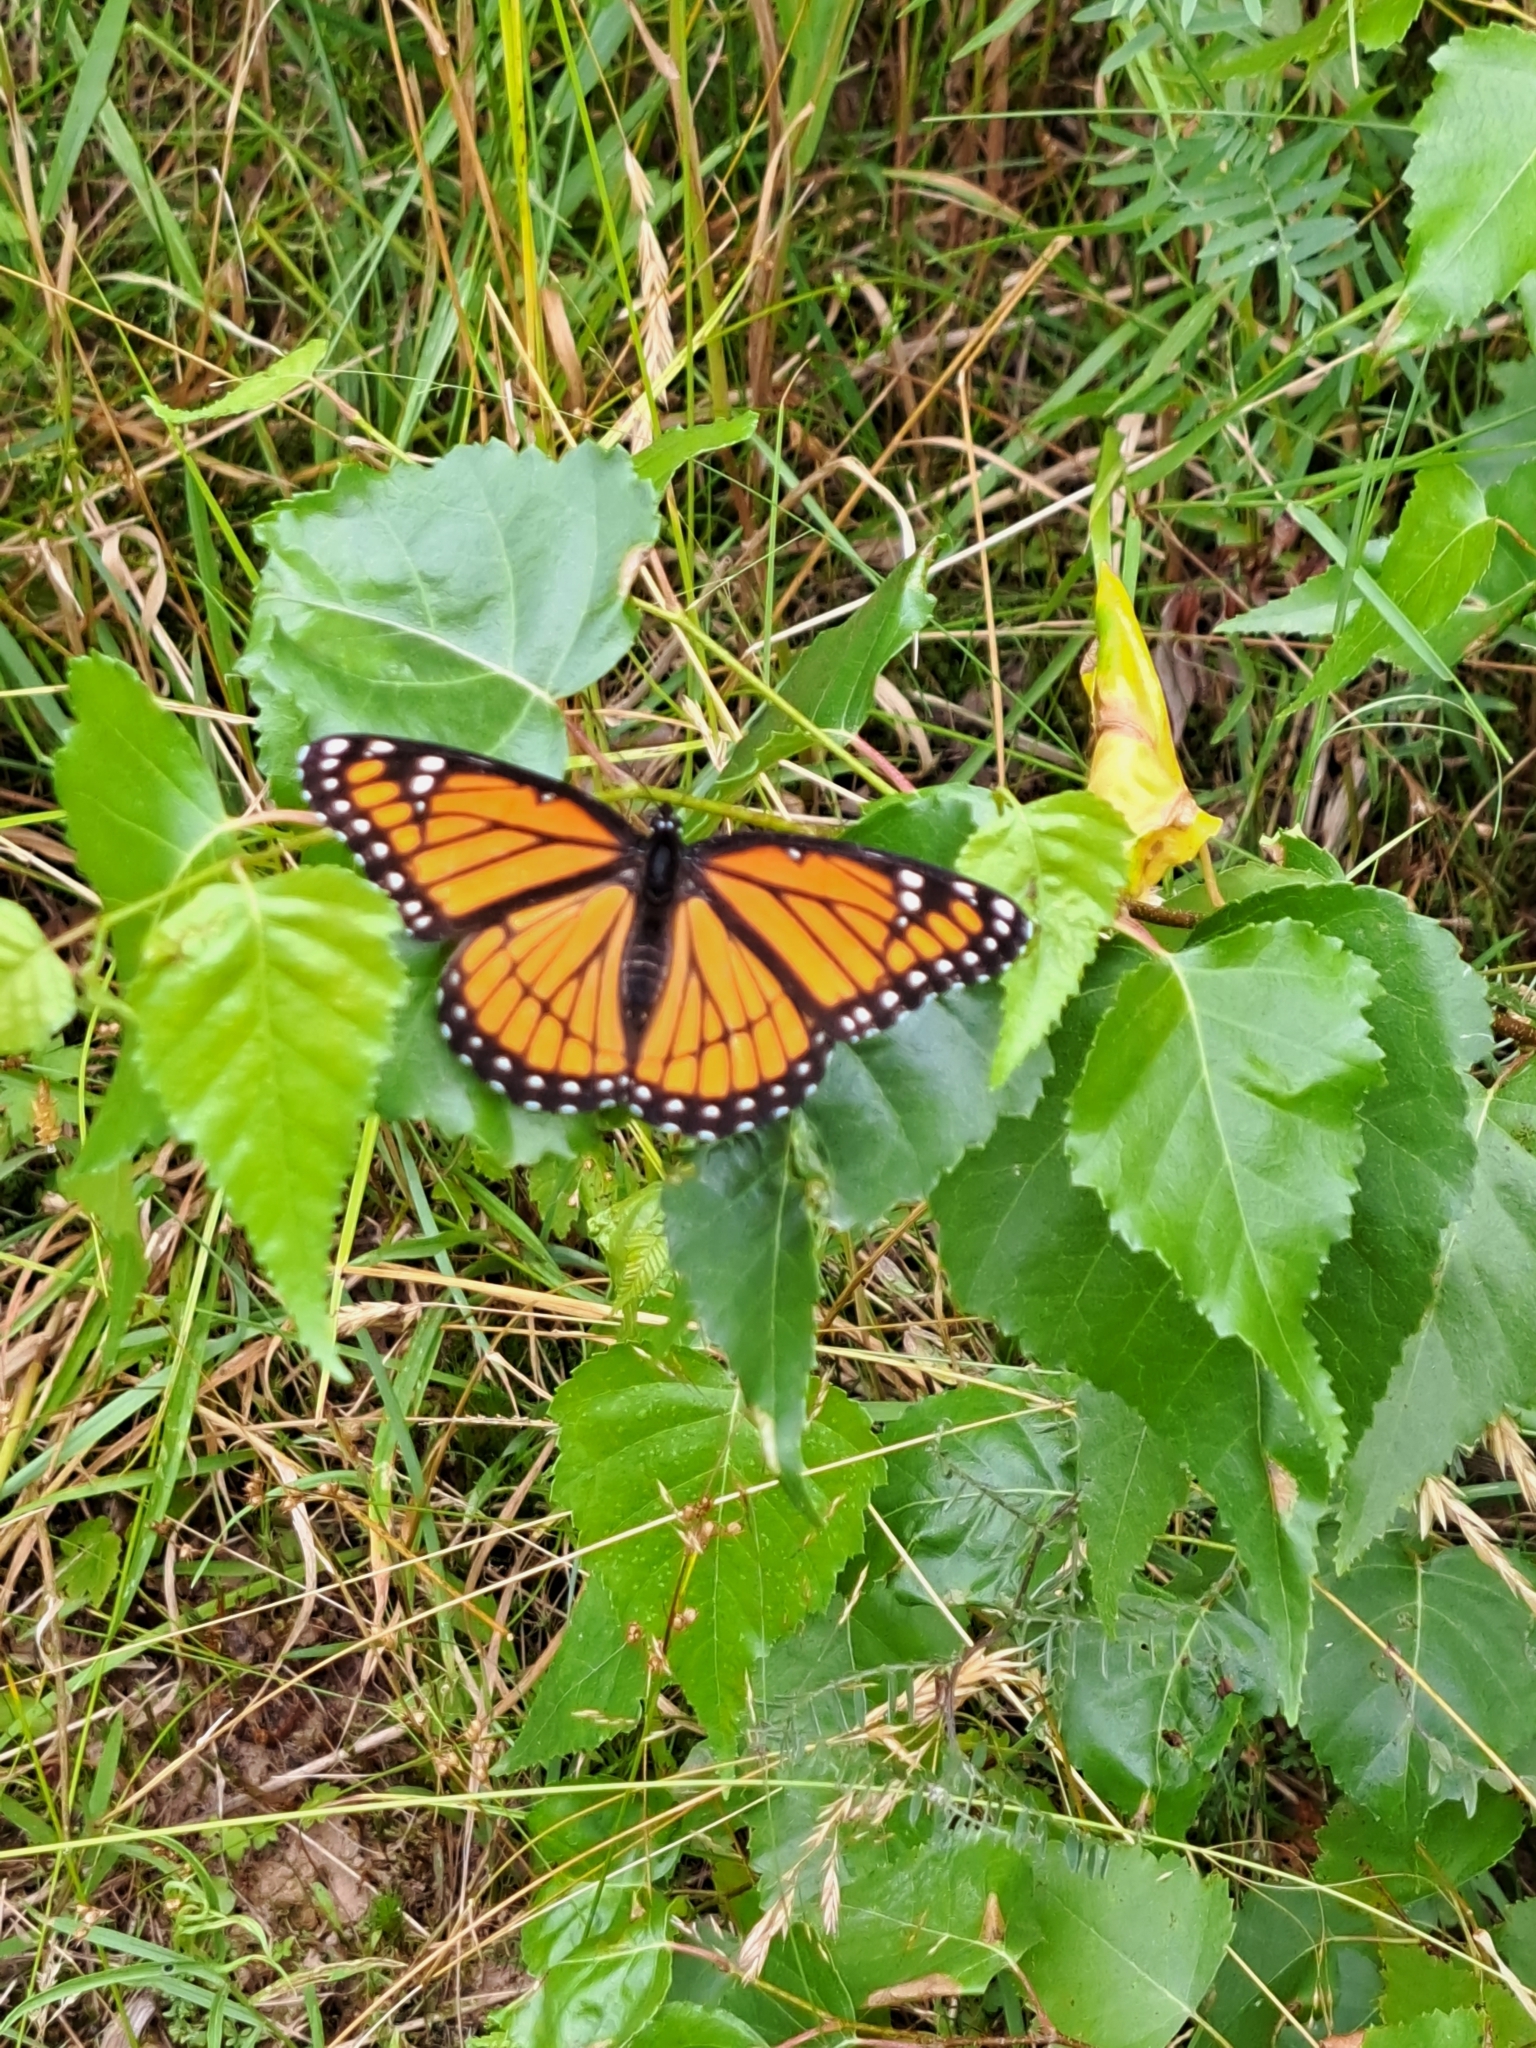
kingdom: Animalia
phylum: Arthropoda
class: Insecta
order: Lepidoptera
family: Nymphalidae
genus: Limenitis
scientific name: Limenitis archippus
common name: Viceroy
